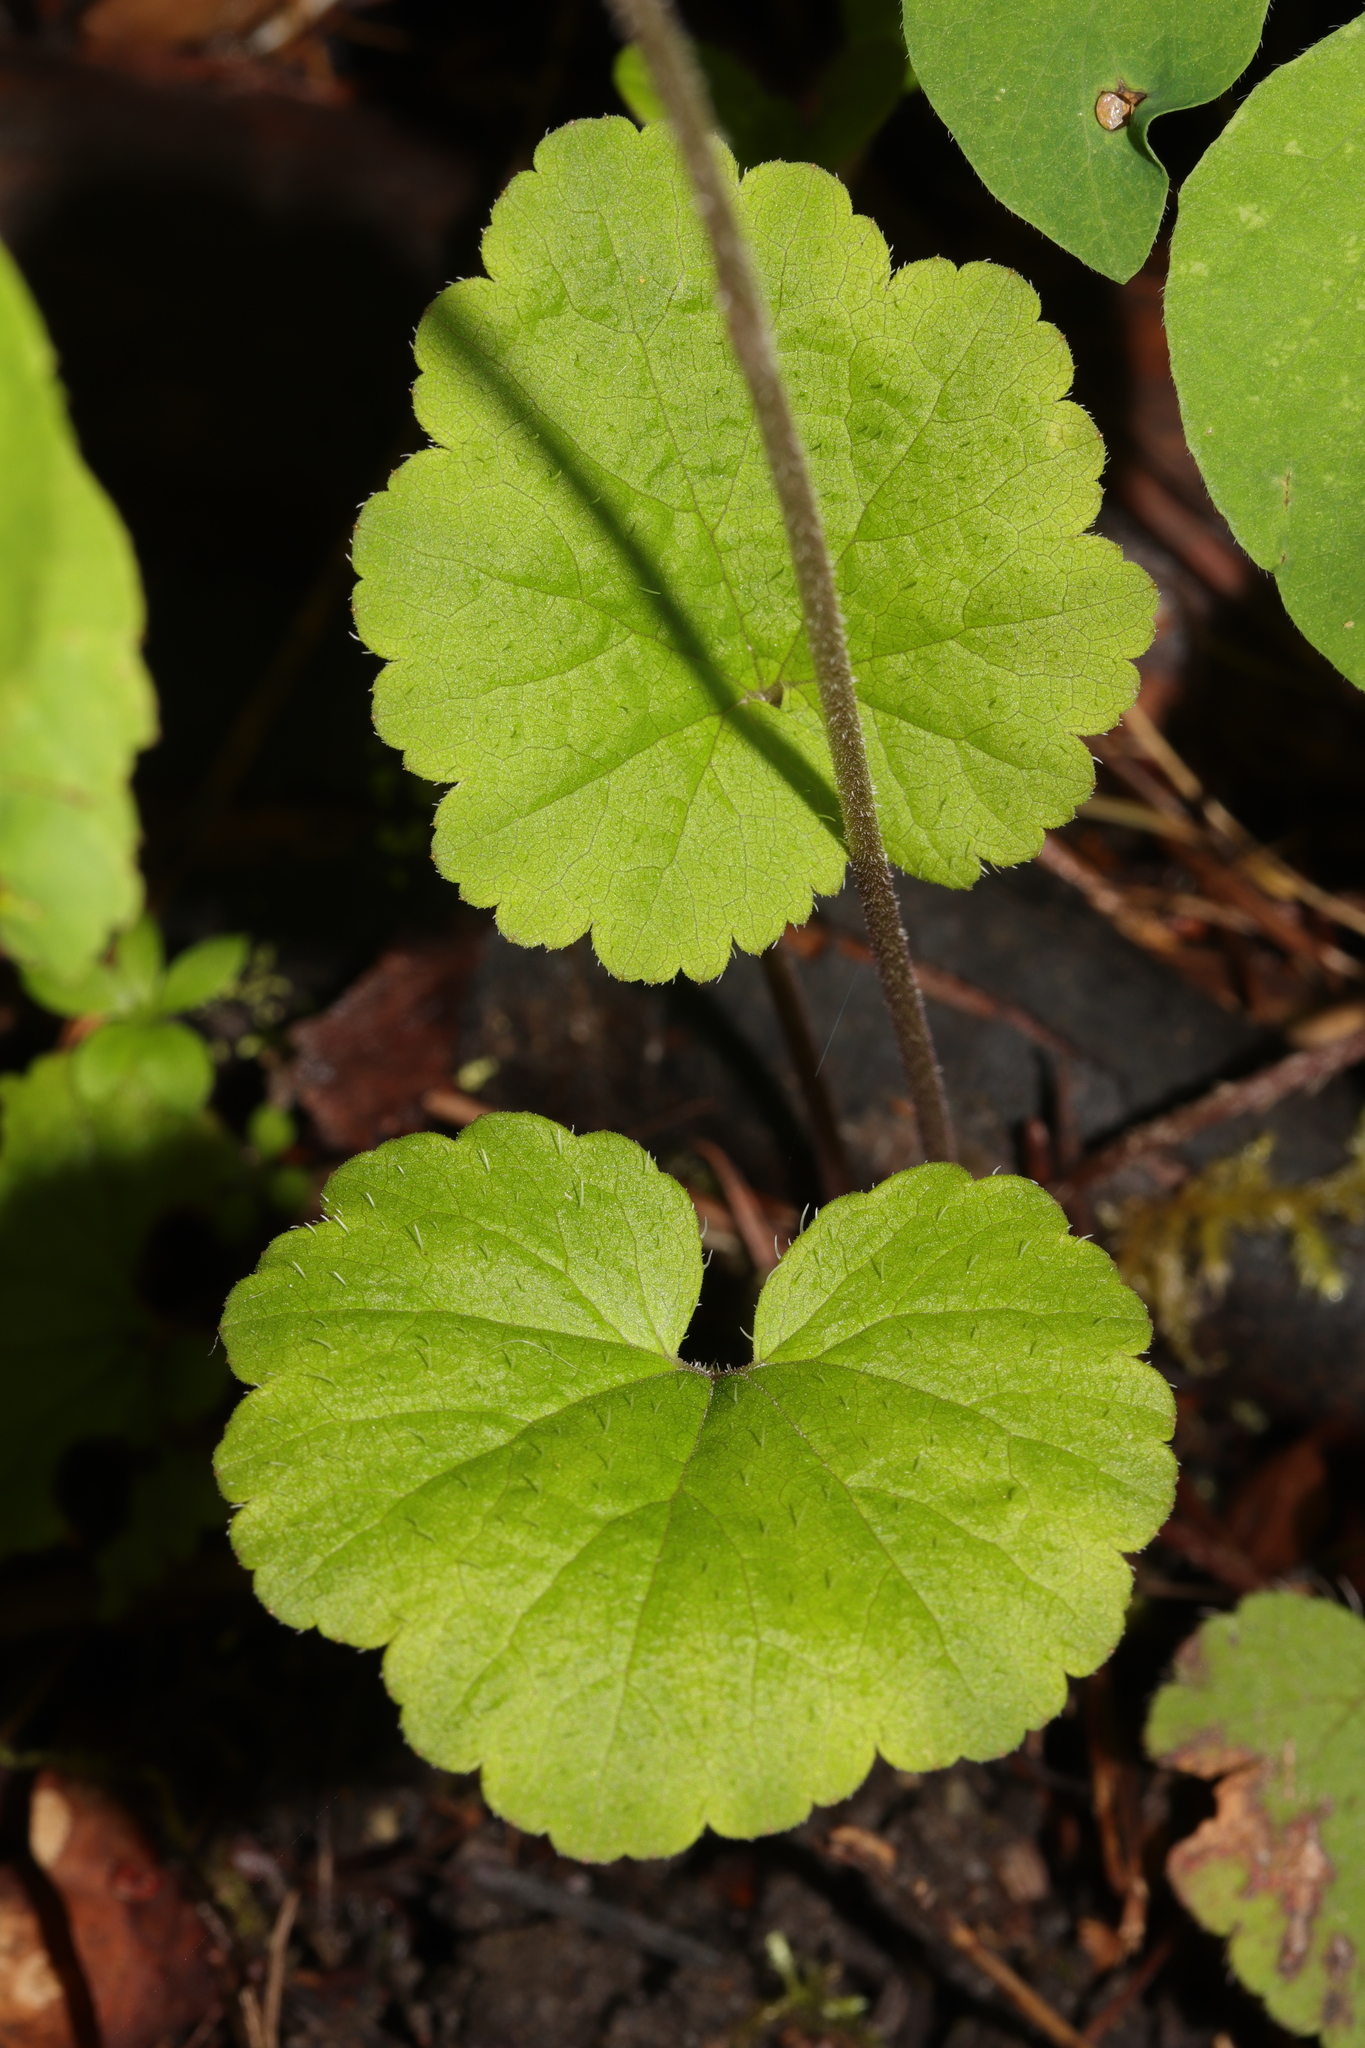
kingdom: Plantae
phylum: Tracheophyta
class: Magnoliopsida
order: Saxifragales
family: Saxifragaceae
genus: Ozomelis
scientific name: Ozomelis stauropetala
